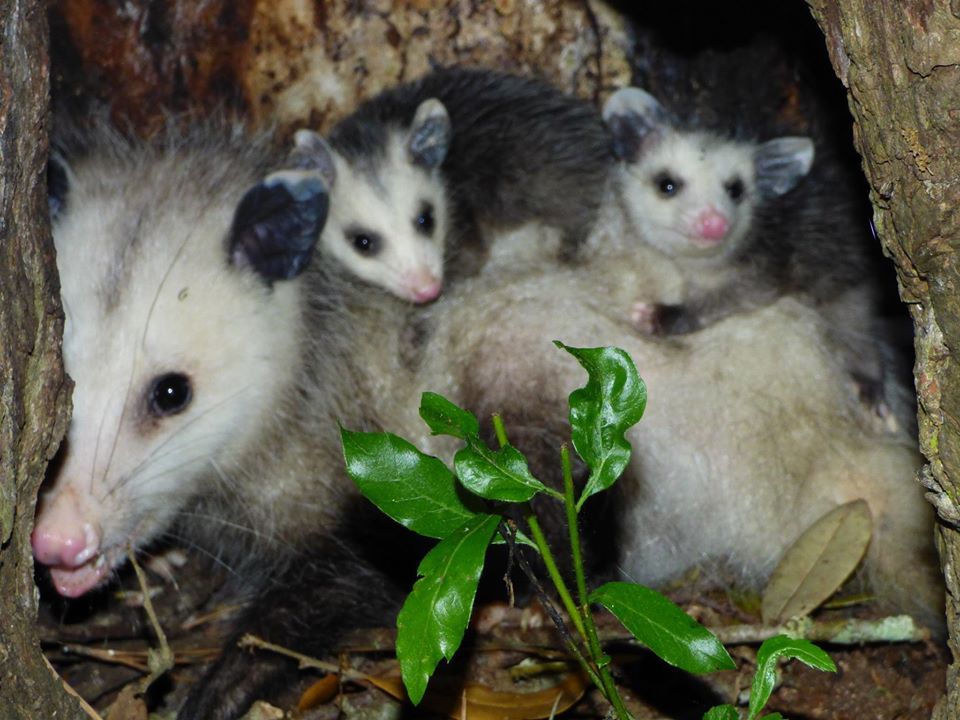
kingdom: Animalia
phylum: Chordata
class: Mammalia
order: Didelphimorphia
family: Didelphidae
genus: Didelphis
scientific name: Didelphis virginiana
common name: Virginia opossum
